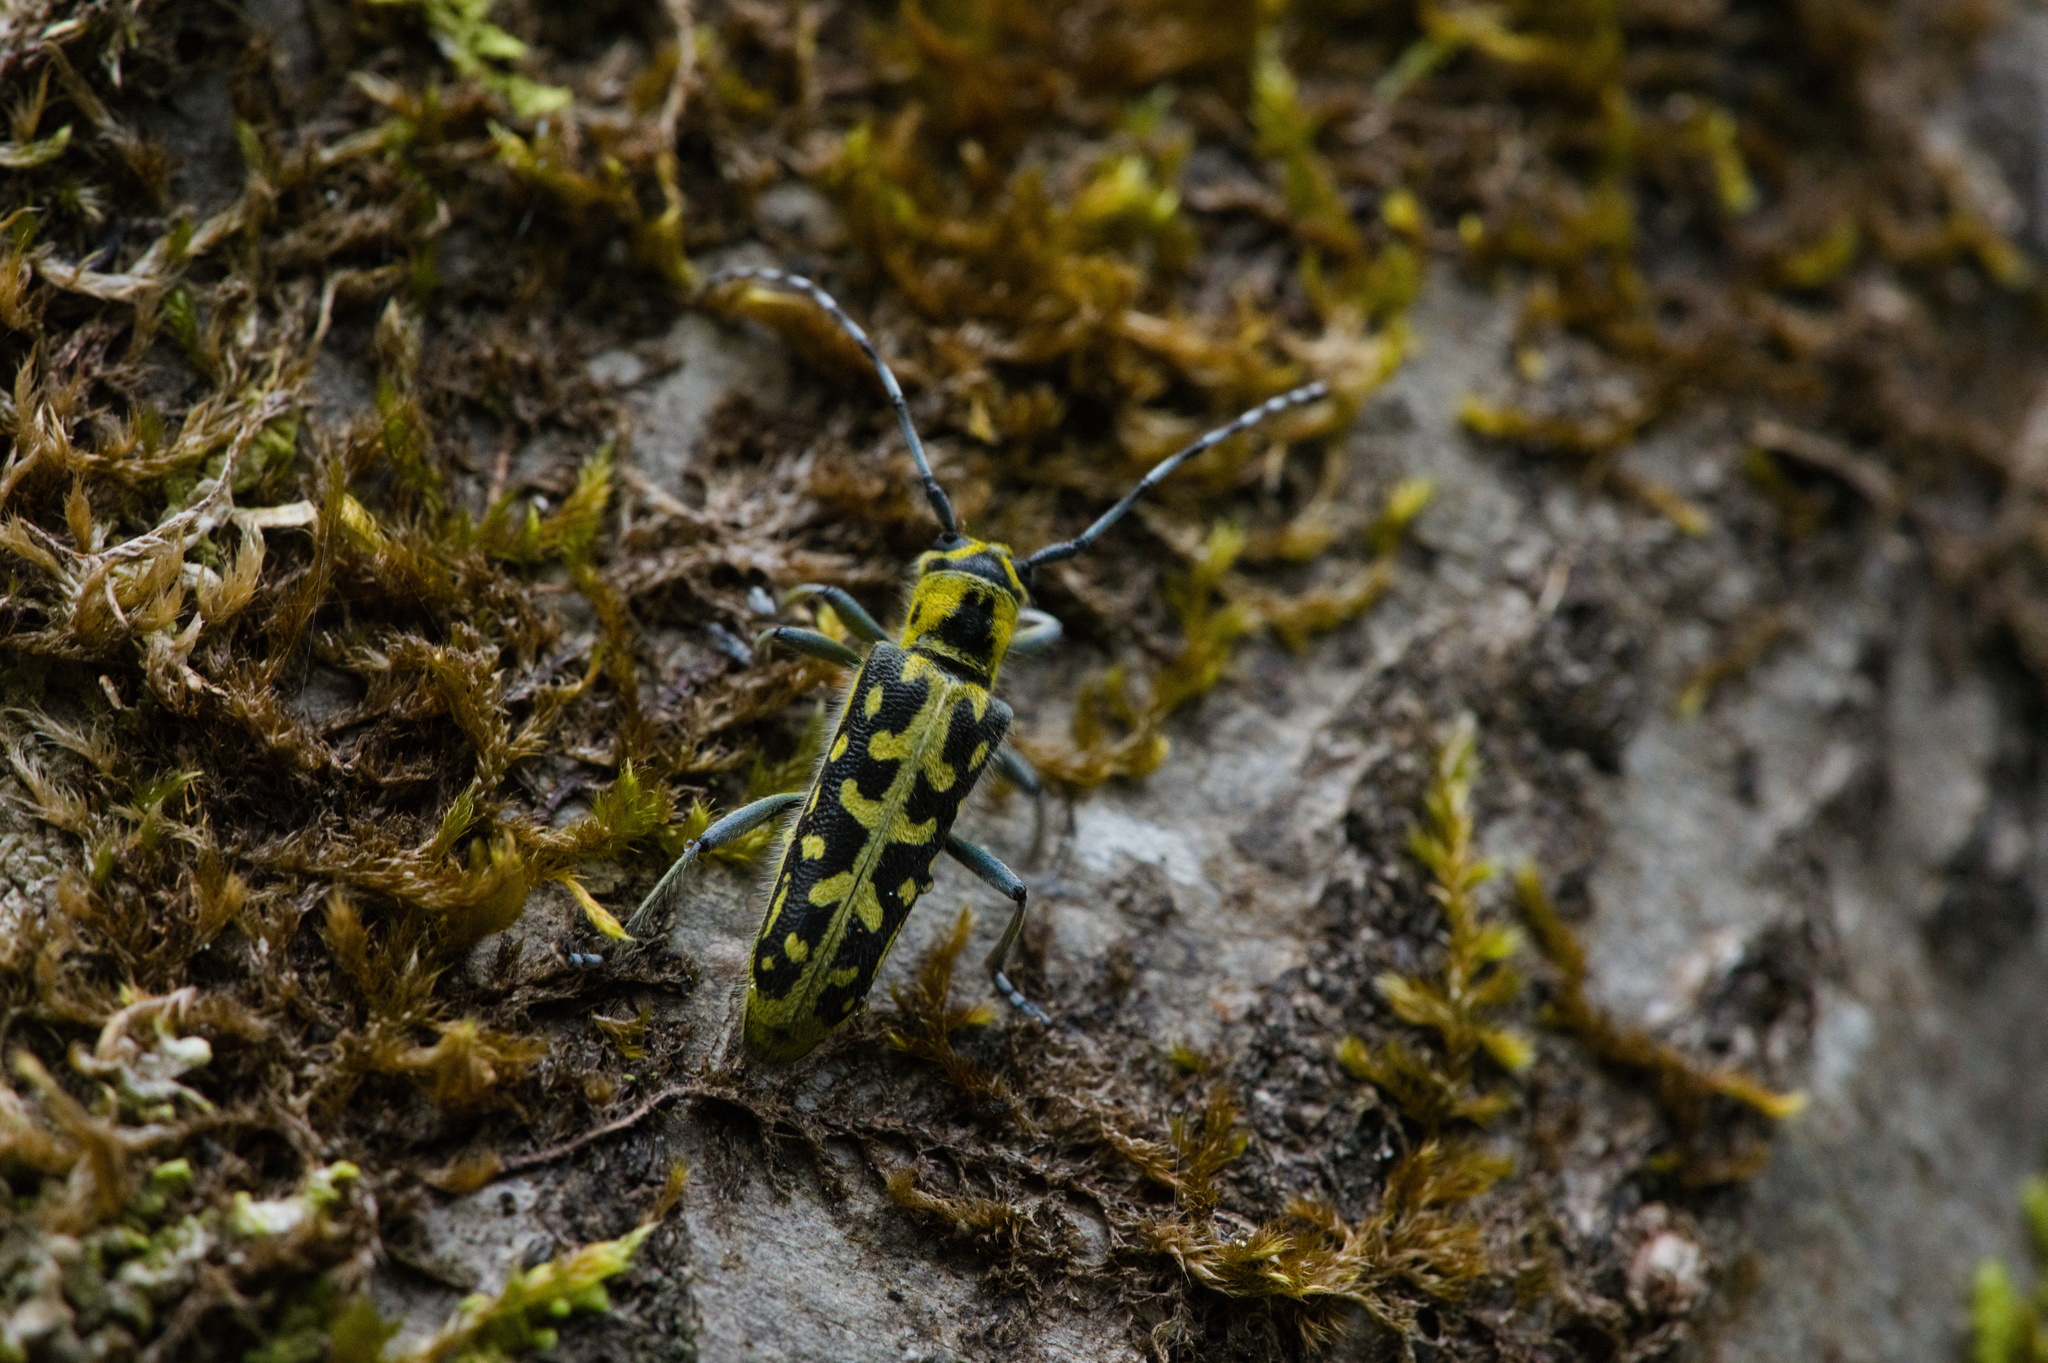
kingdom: Animalia
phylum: Arthropoda
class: Insecta
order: Coleoptera
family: Cerambycidae
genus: Saperda
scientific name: Saperda scalaris
